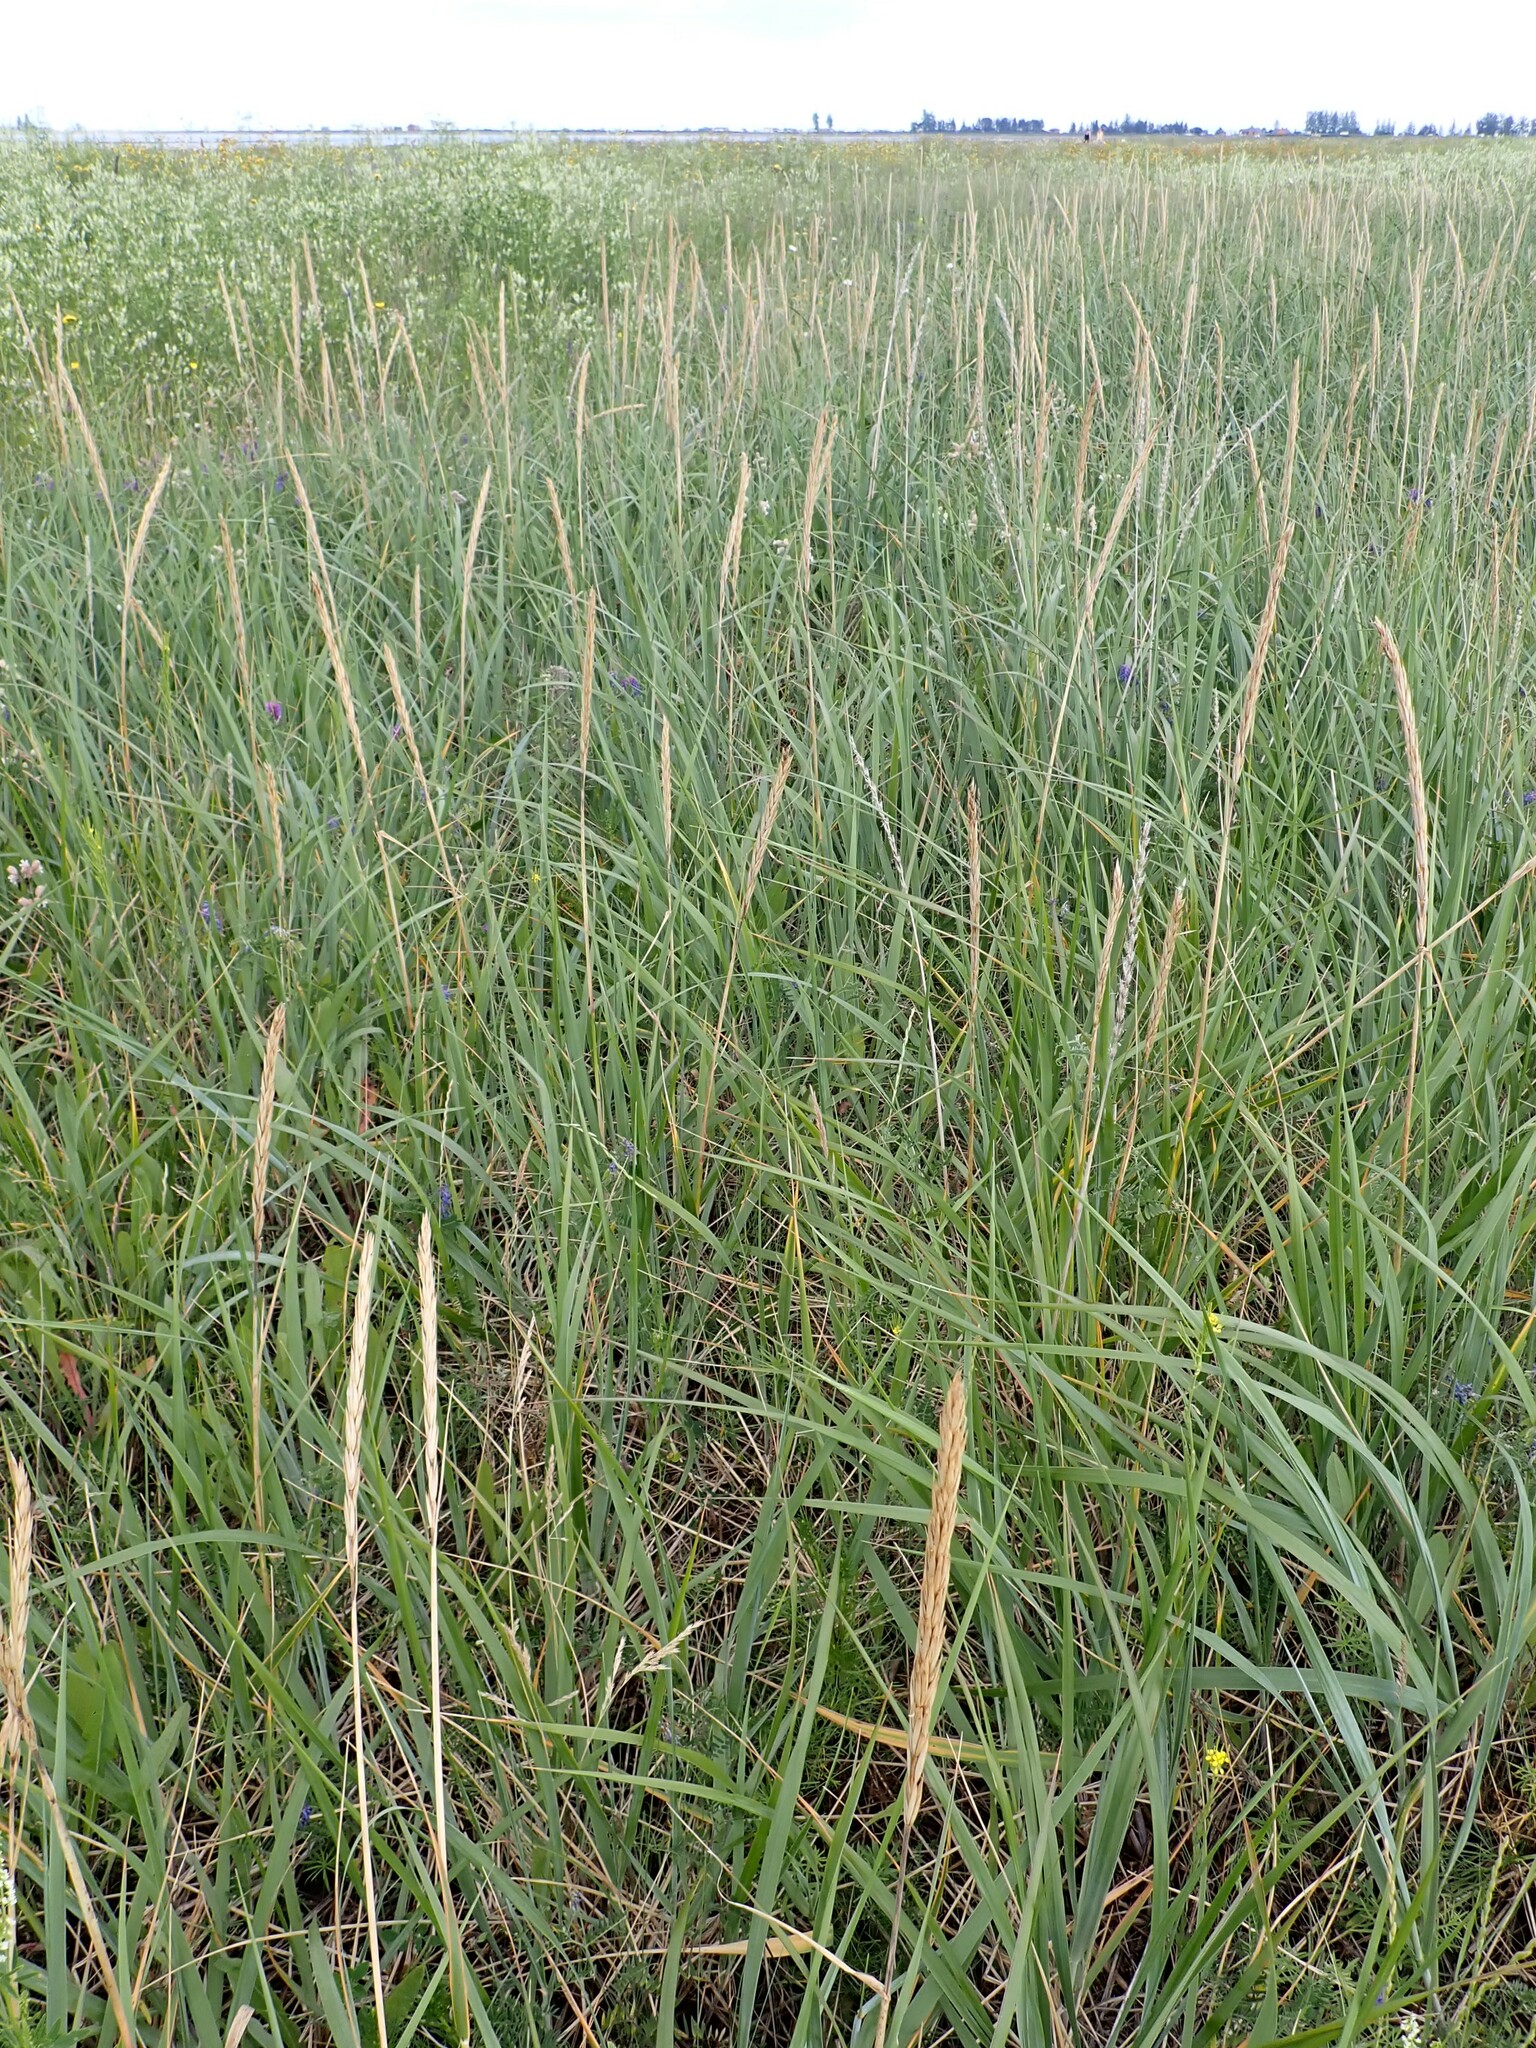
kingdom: Plantae
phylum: Tracheophyta
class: Liliopsida
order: Poales
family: Poaceae
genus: Leymus
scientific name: Leymus mollis
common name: American dune grass
